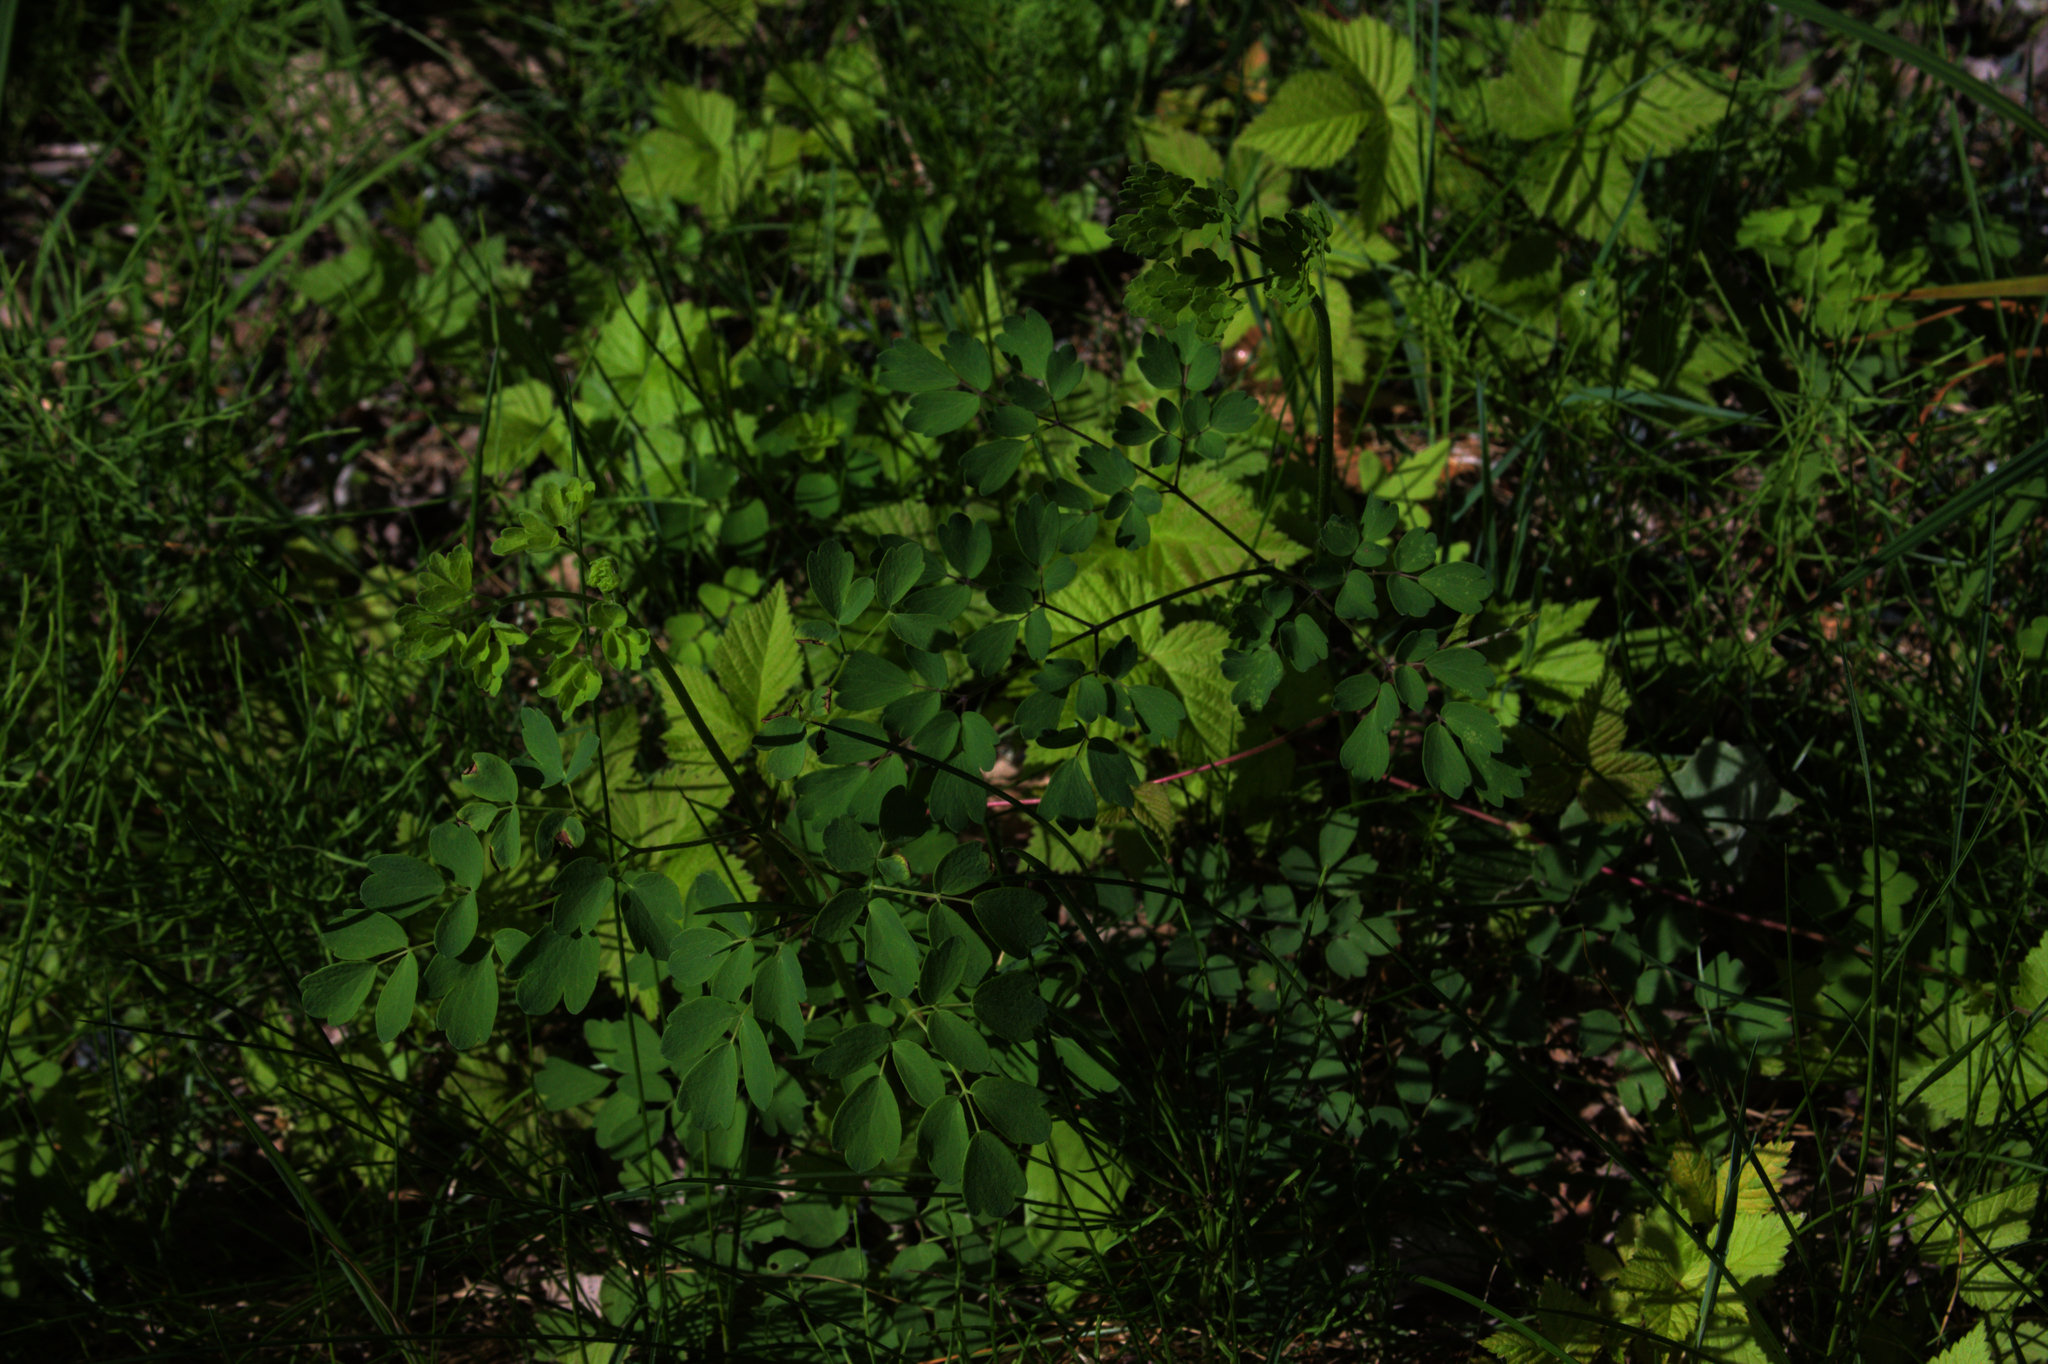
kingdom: Plantae
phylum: Tracheophyta
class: Magnoliopsida
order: Ranunculales
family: Ranunculaceae
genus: Thalictrum
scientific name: Thalictrum pubescens
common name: King-of-the-meadow
